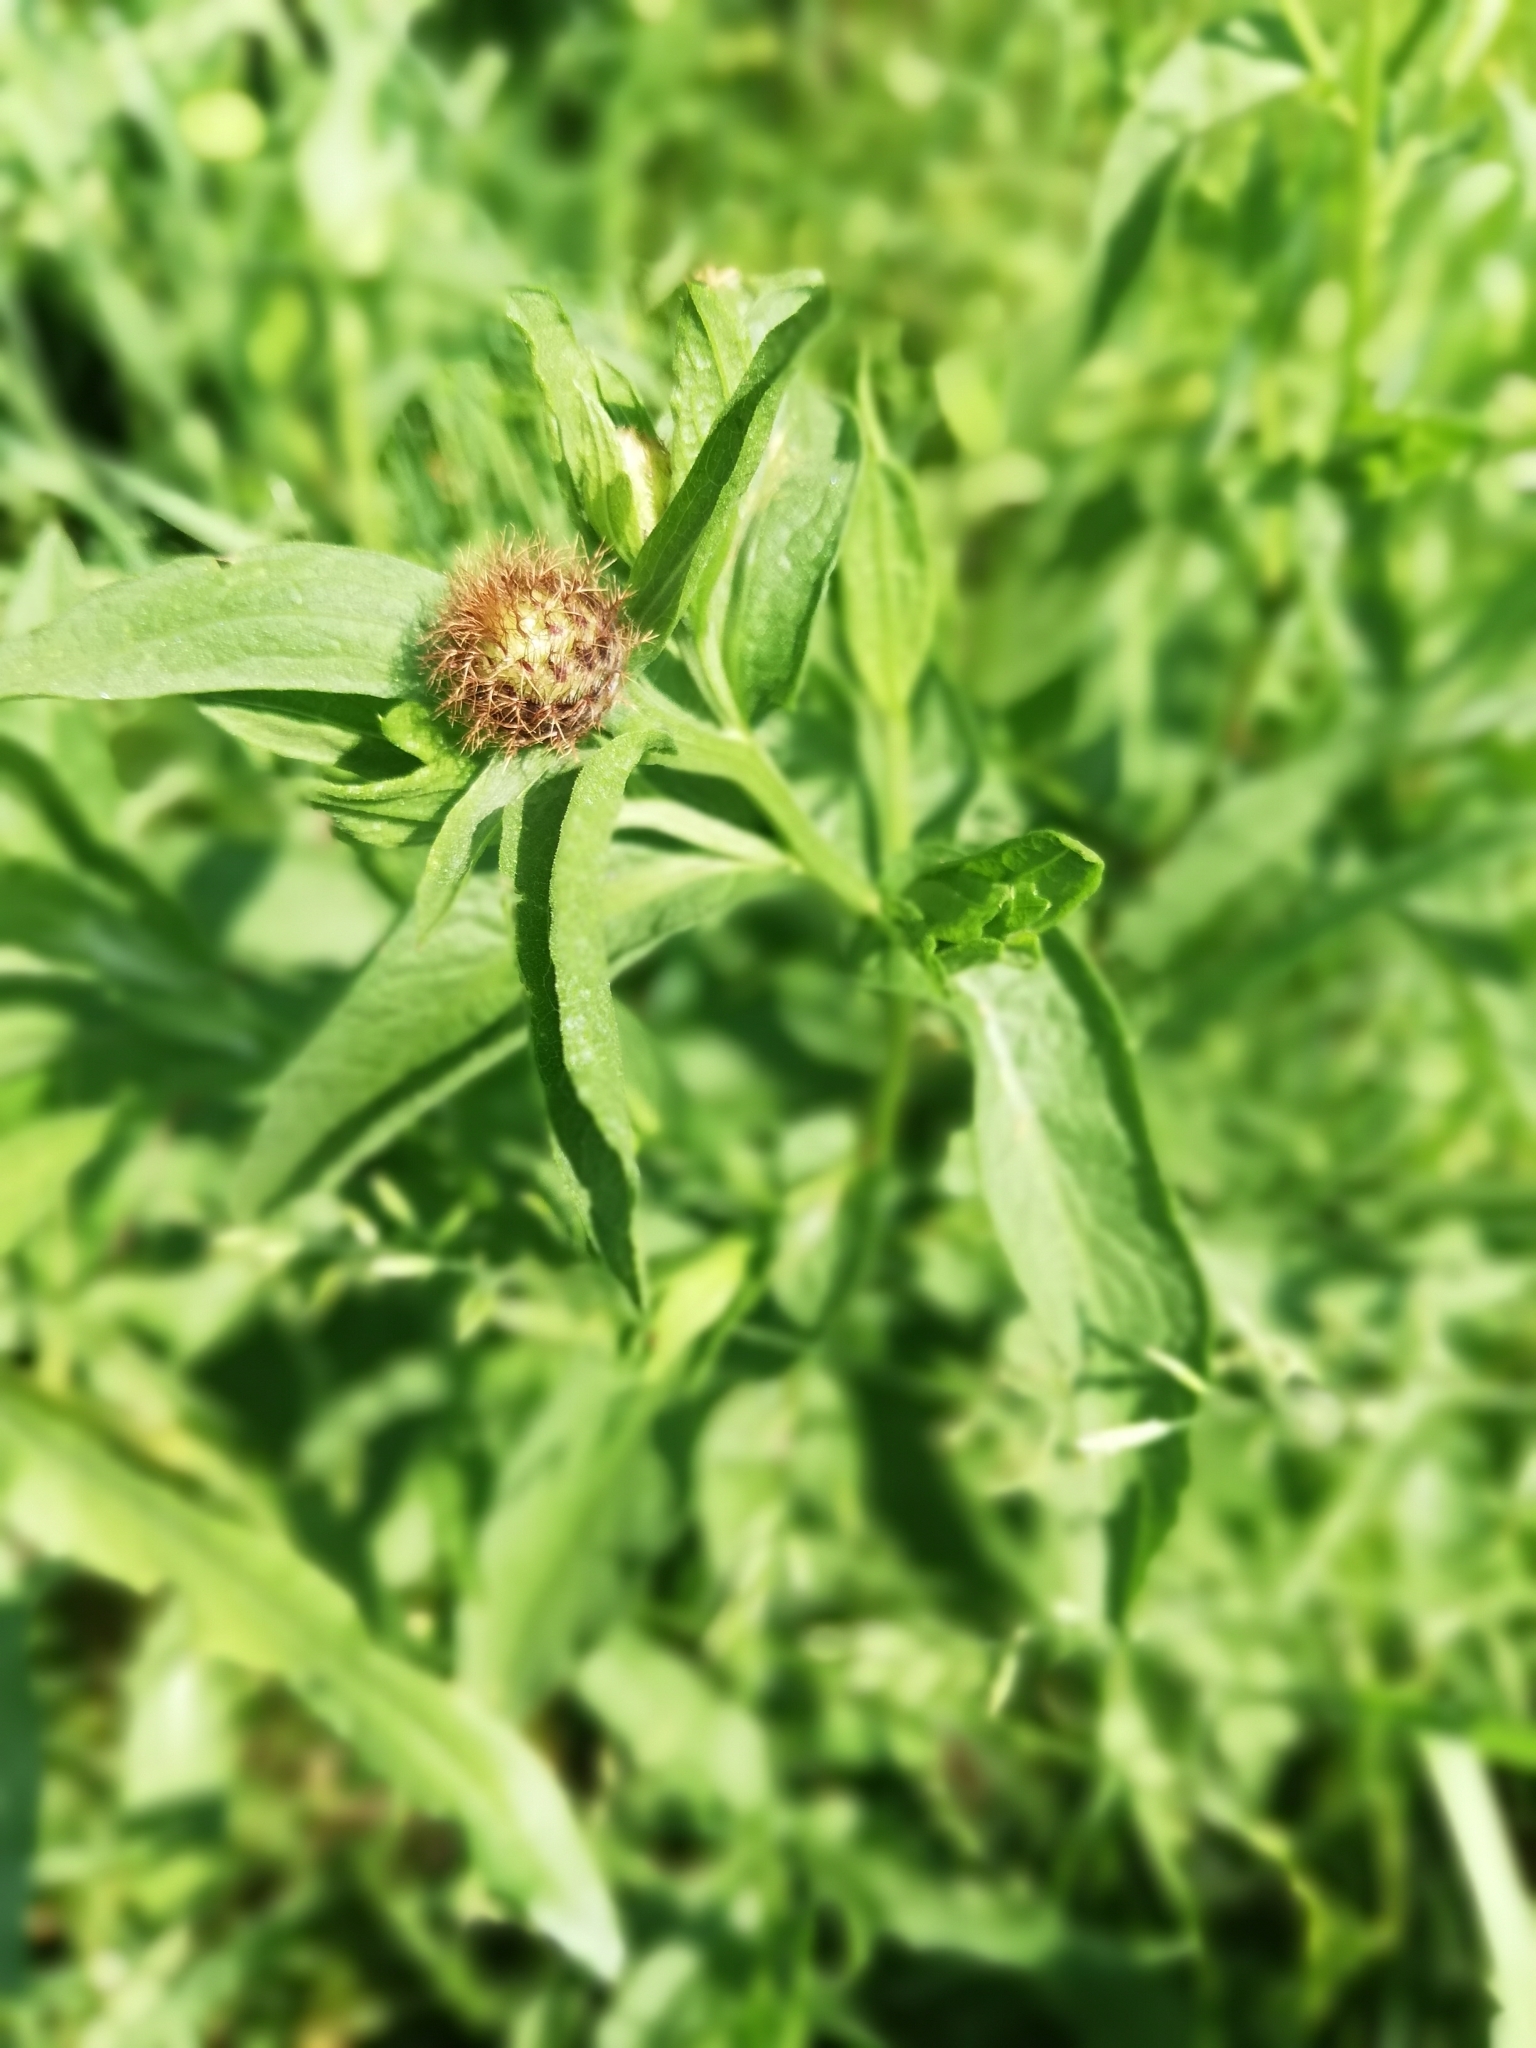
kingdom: Plantae
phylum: Tracheophyta
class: Magnoliopsida
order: Asterales
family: Asteraceae
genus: Centaurea
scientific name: Centaurea phrygia
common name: Wig knapweed
